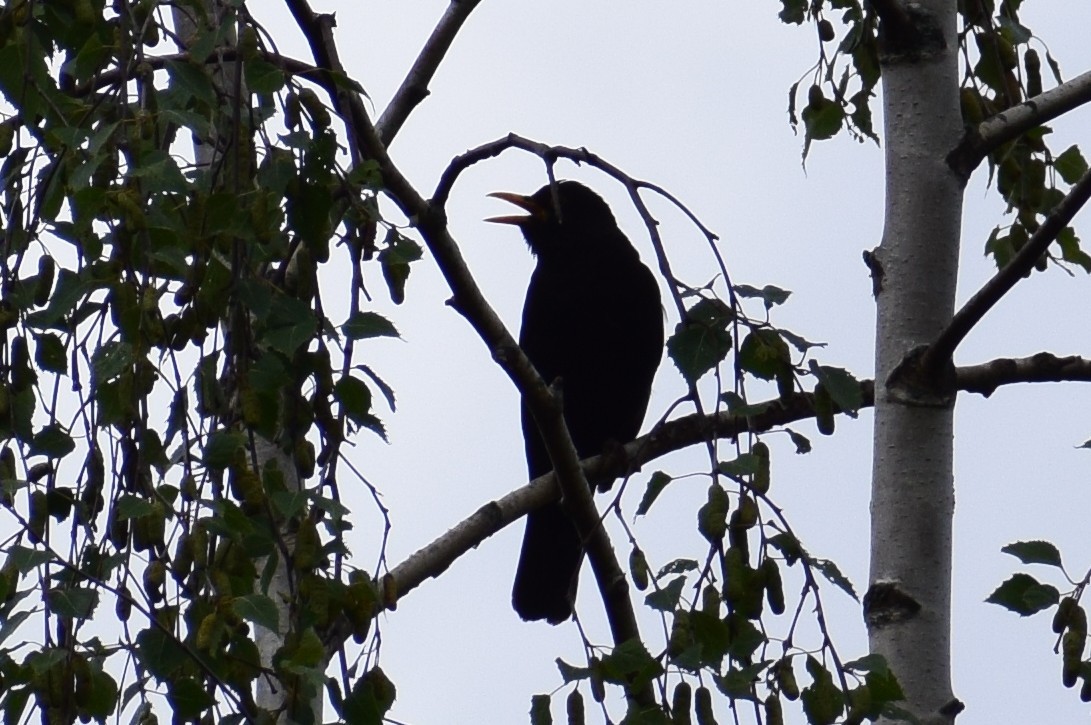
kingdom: Animalia
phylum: Chordata
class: Aves
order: Passeriformes
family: Turdidae
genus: Turdus
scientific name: Turdus merula
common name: Common blackbird
